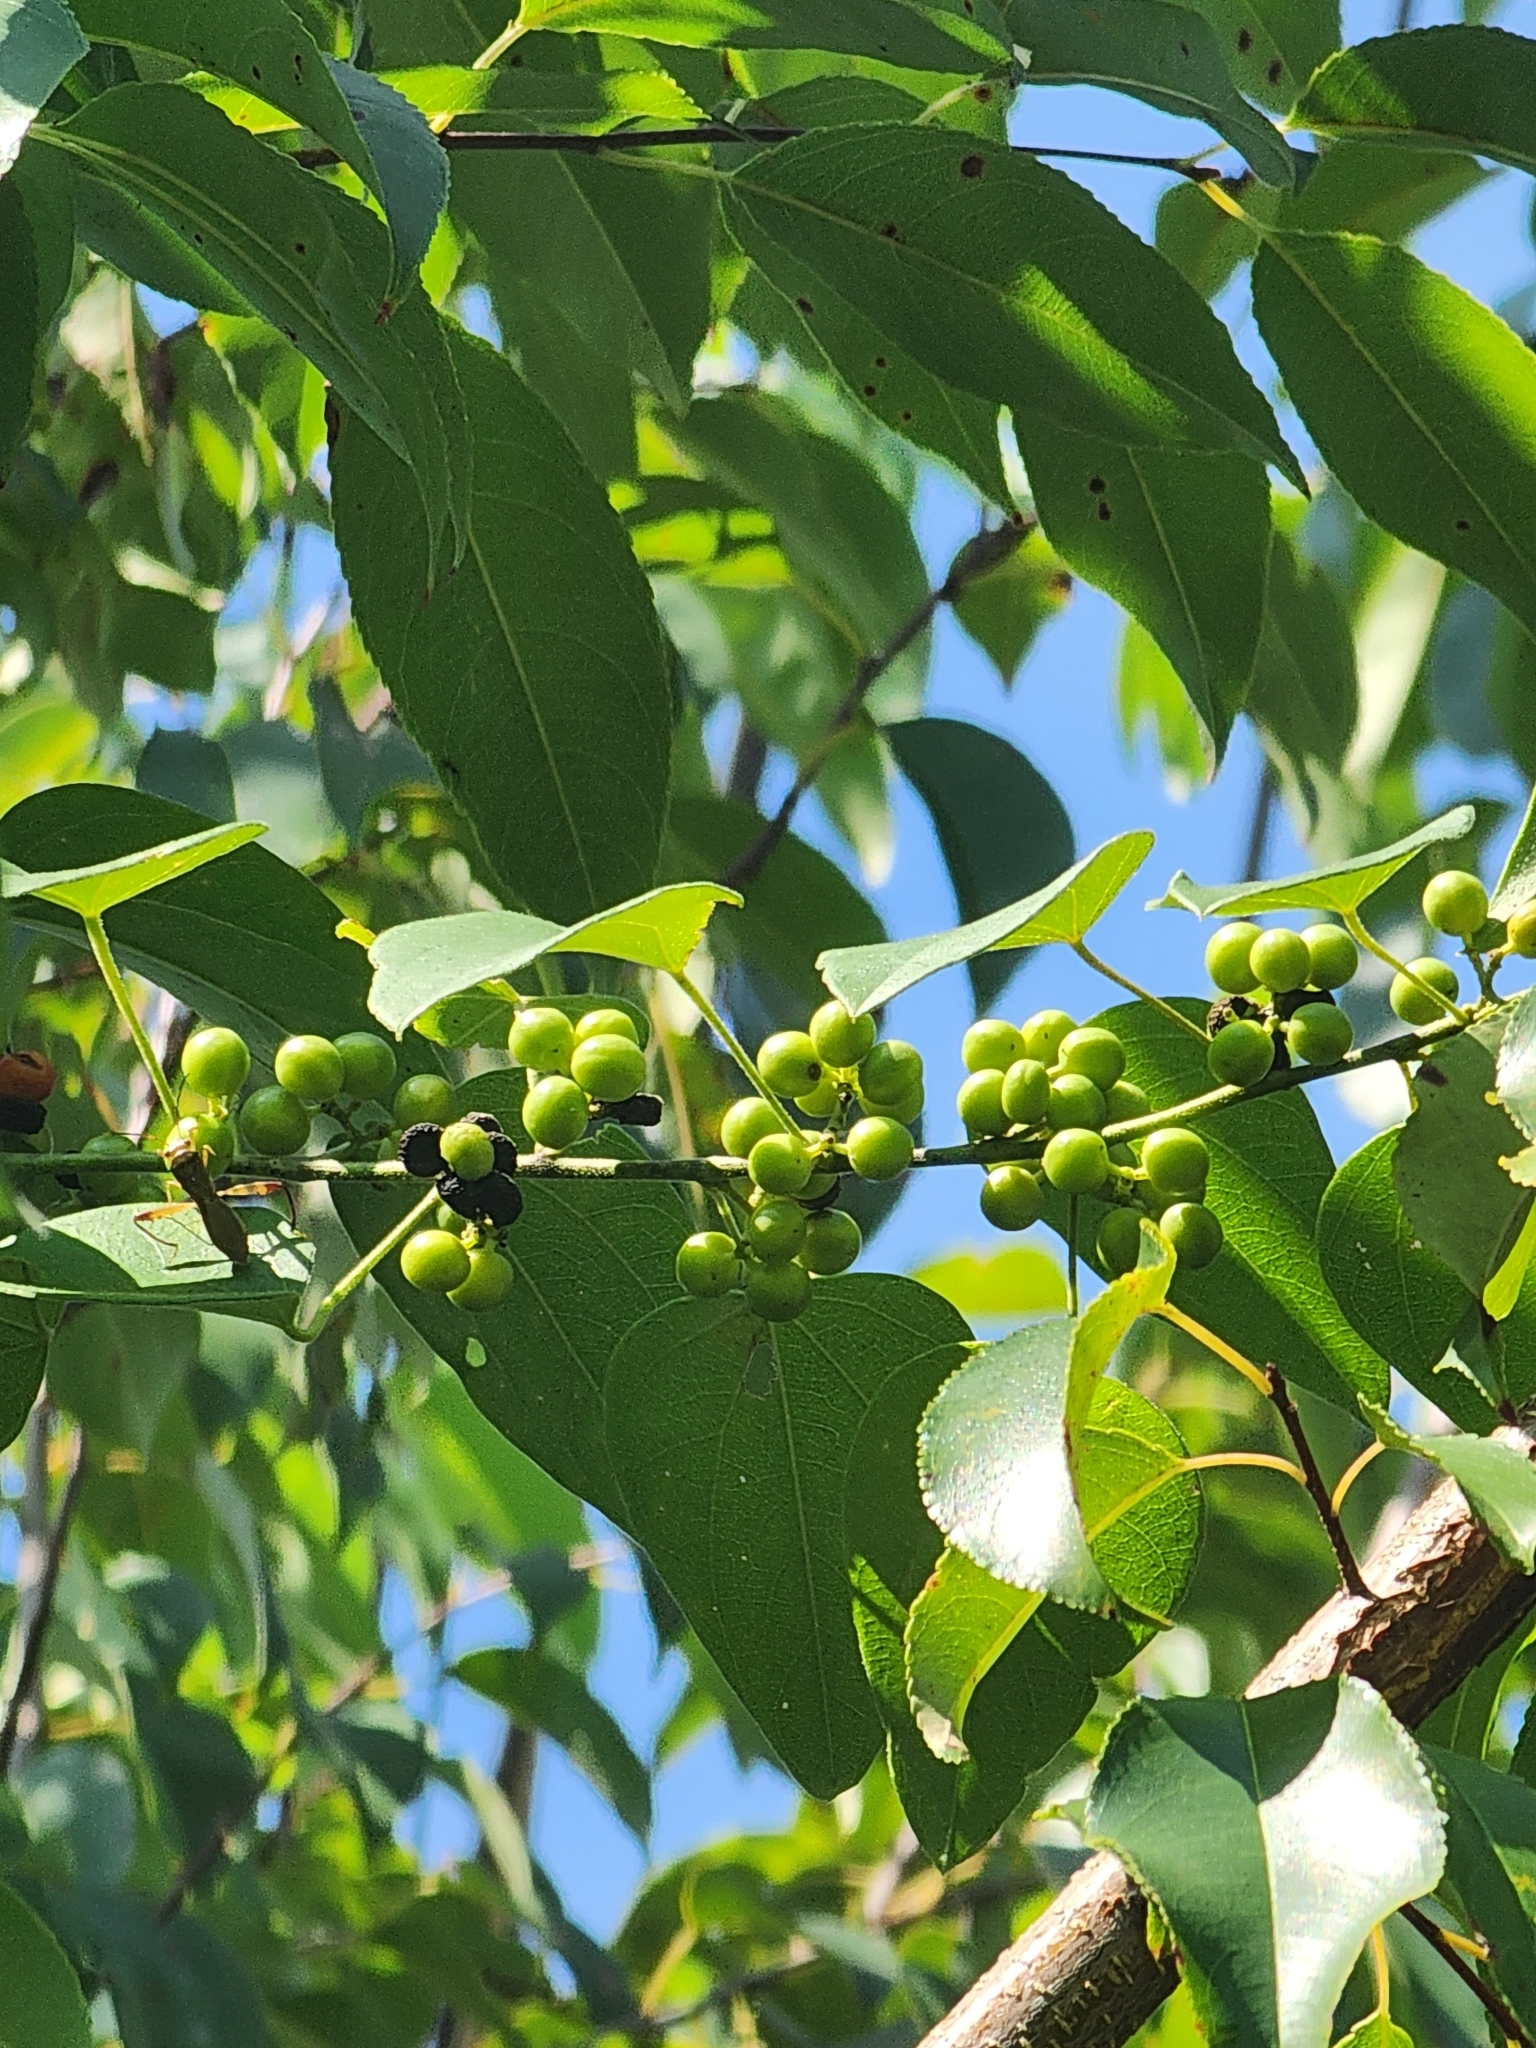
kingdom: Plantae
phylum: Tracheophyta
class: Magnoliopsida
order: Ranunculales
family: Menispermaceae
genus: Cocculus
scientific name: Cocculus carolinus
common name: Carolina moonseed
